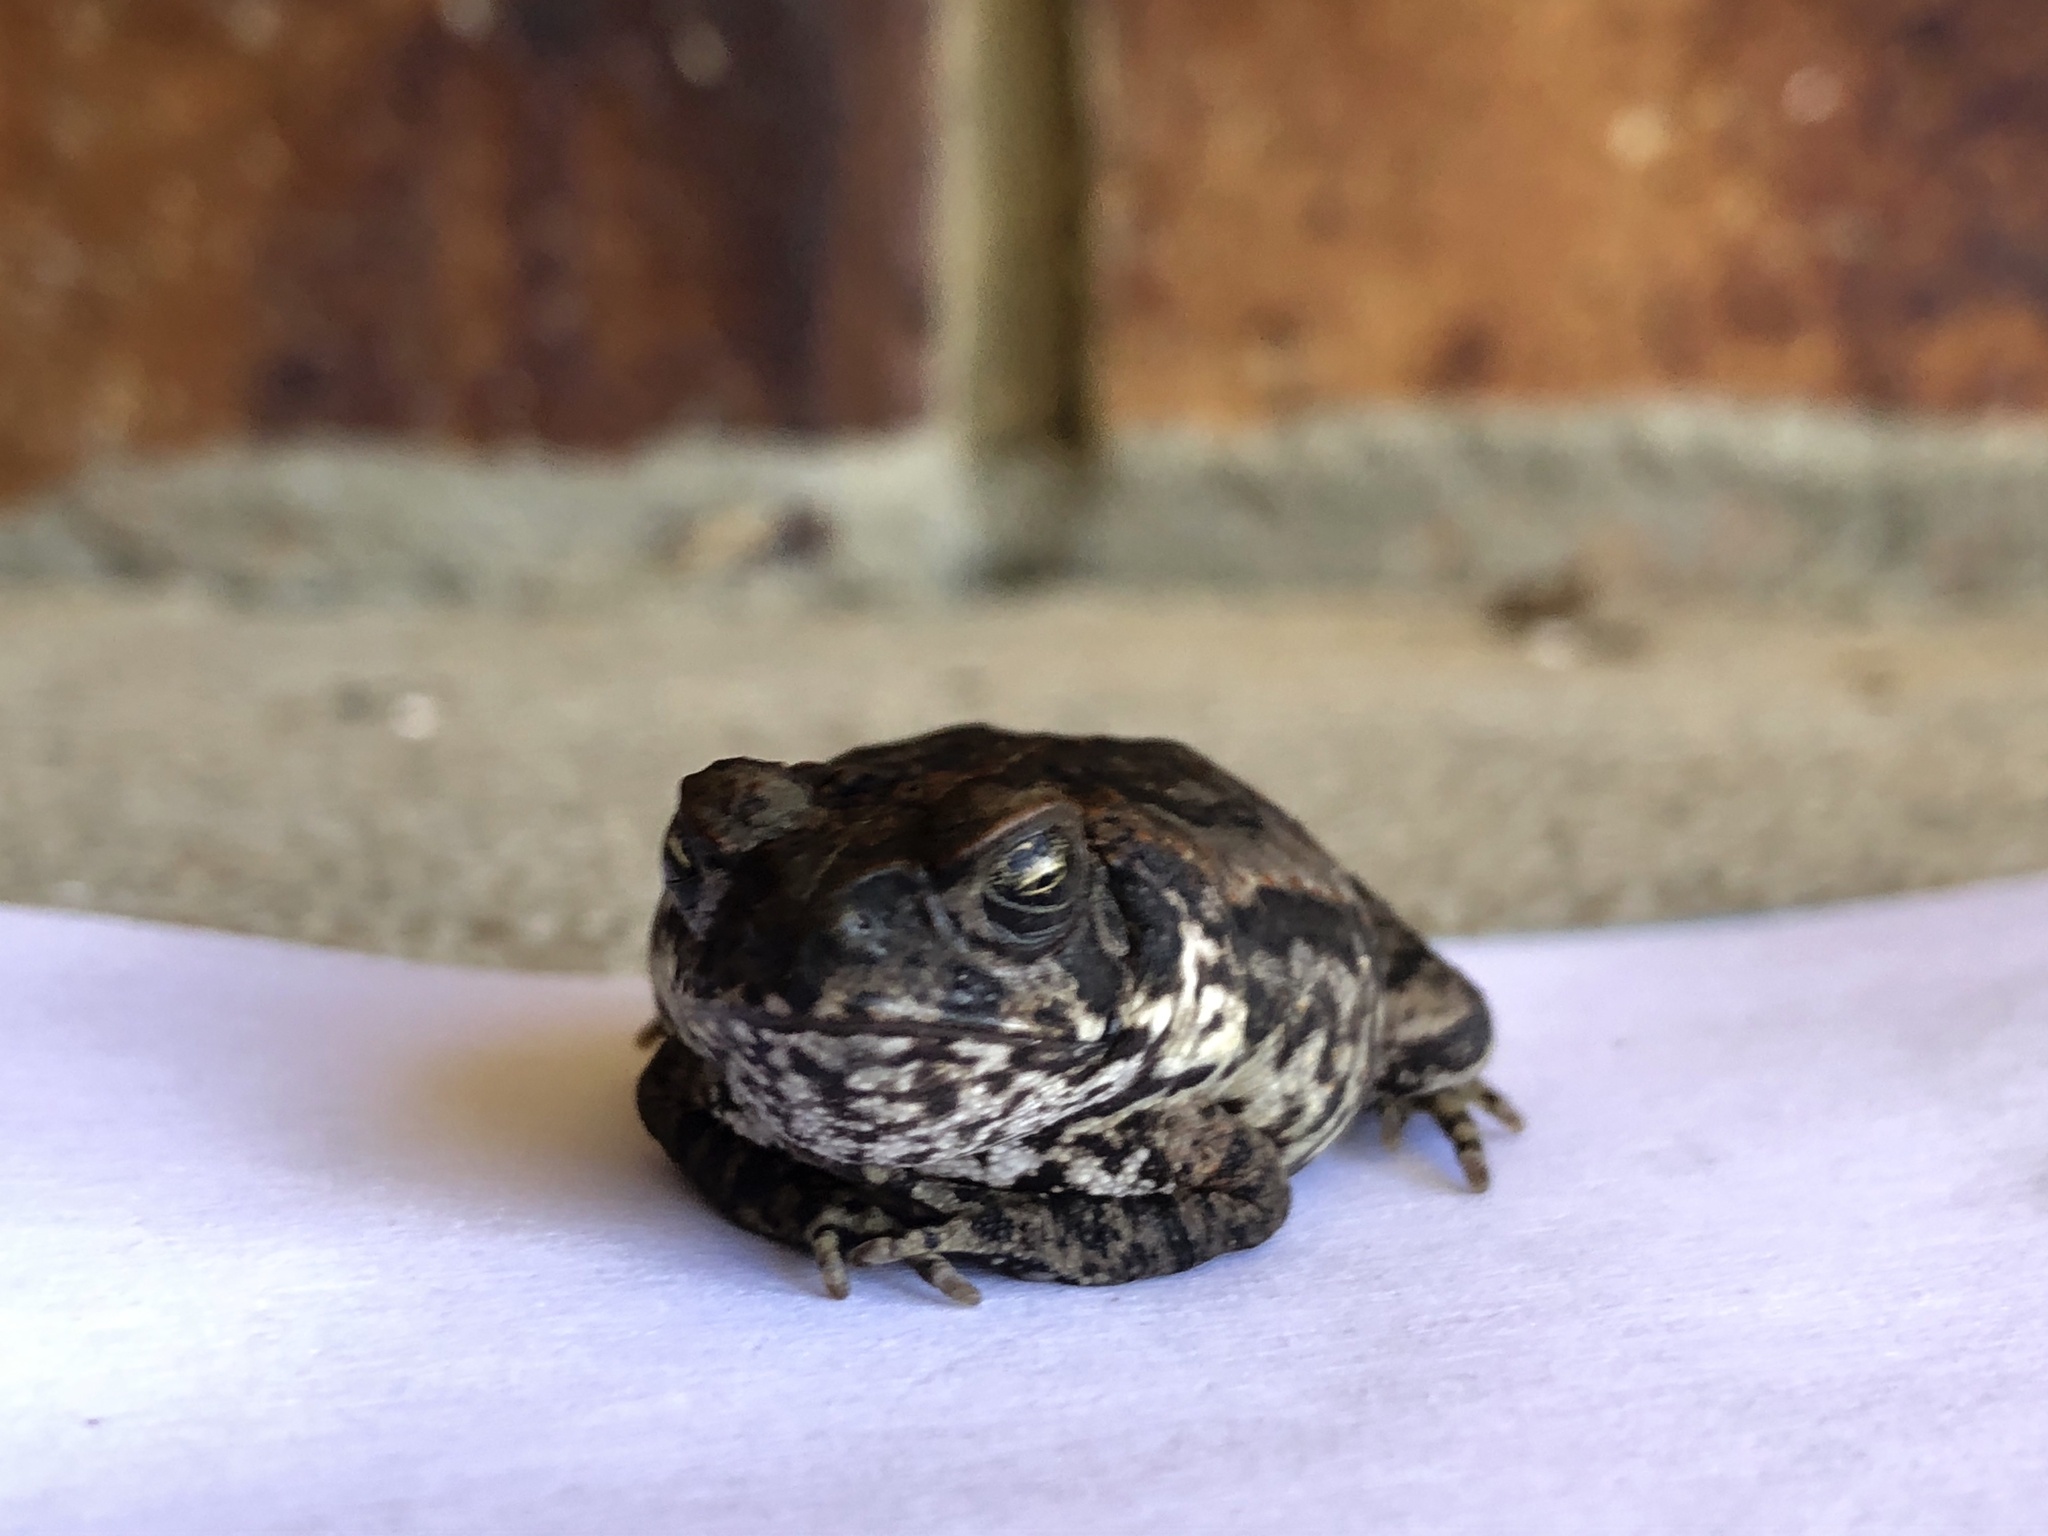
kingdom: Animalia
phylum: Chordata
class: Amphibia
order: Anura
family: Bufonidae
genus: Rhinella
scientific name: Rhinella marina
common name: Cane toad
